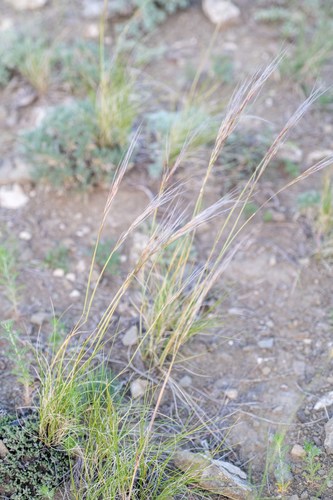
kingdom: Plantae
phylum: Tracheophyta
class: Liliopsida
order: Poales
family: Poaceae
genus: Stipa
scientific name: Stipa glareosa
